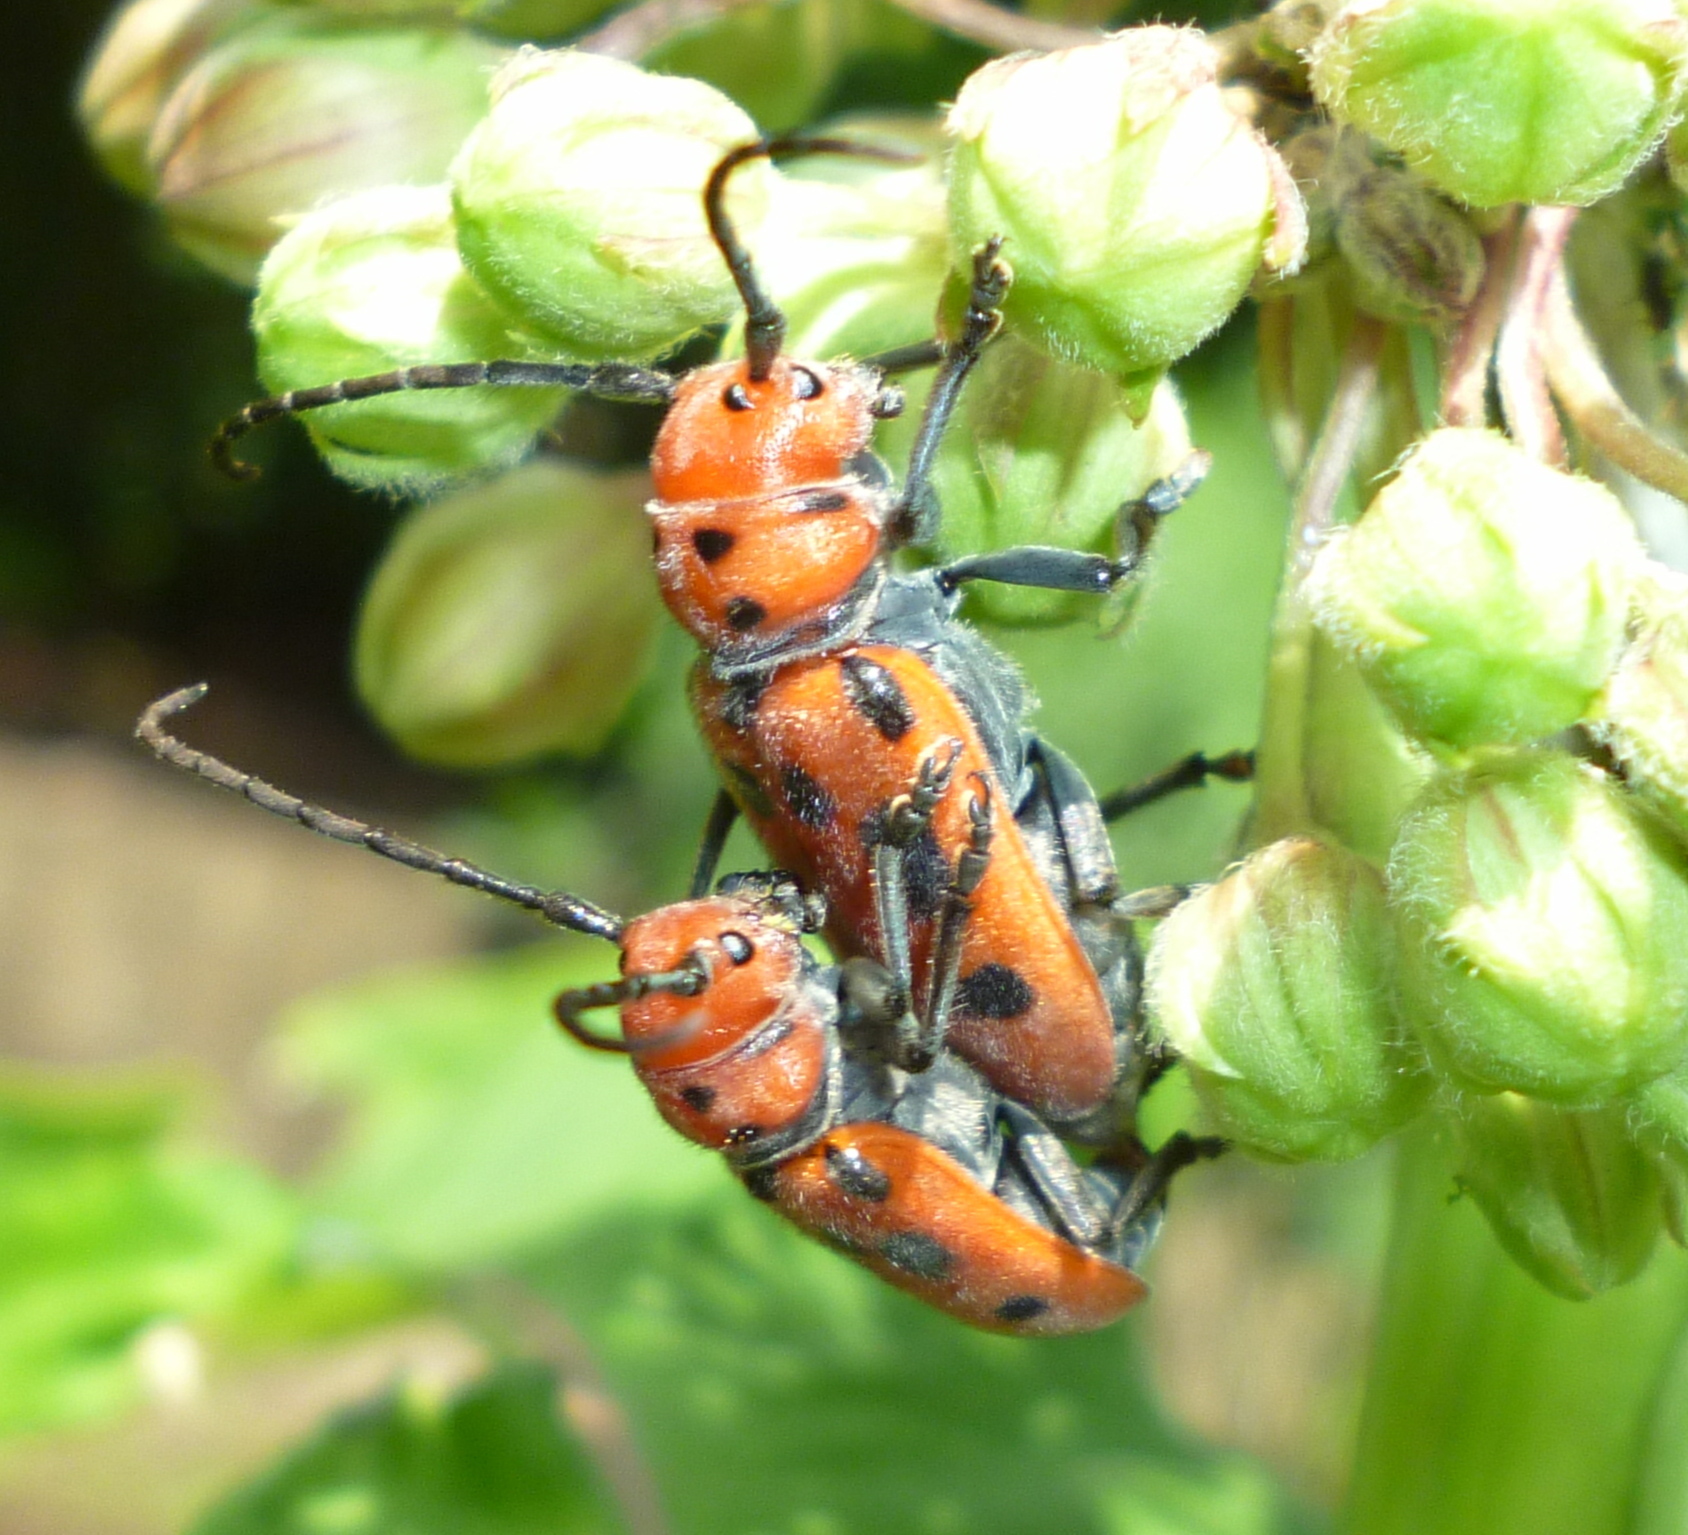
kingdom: Animalia
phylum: Arthropoda
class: Insecta
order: Coleoptera
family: Cerambycidae
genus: Tetraopes
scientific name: Tetraopes tetrophthalmus
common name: Red milkweed beetle
